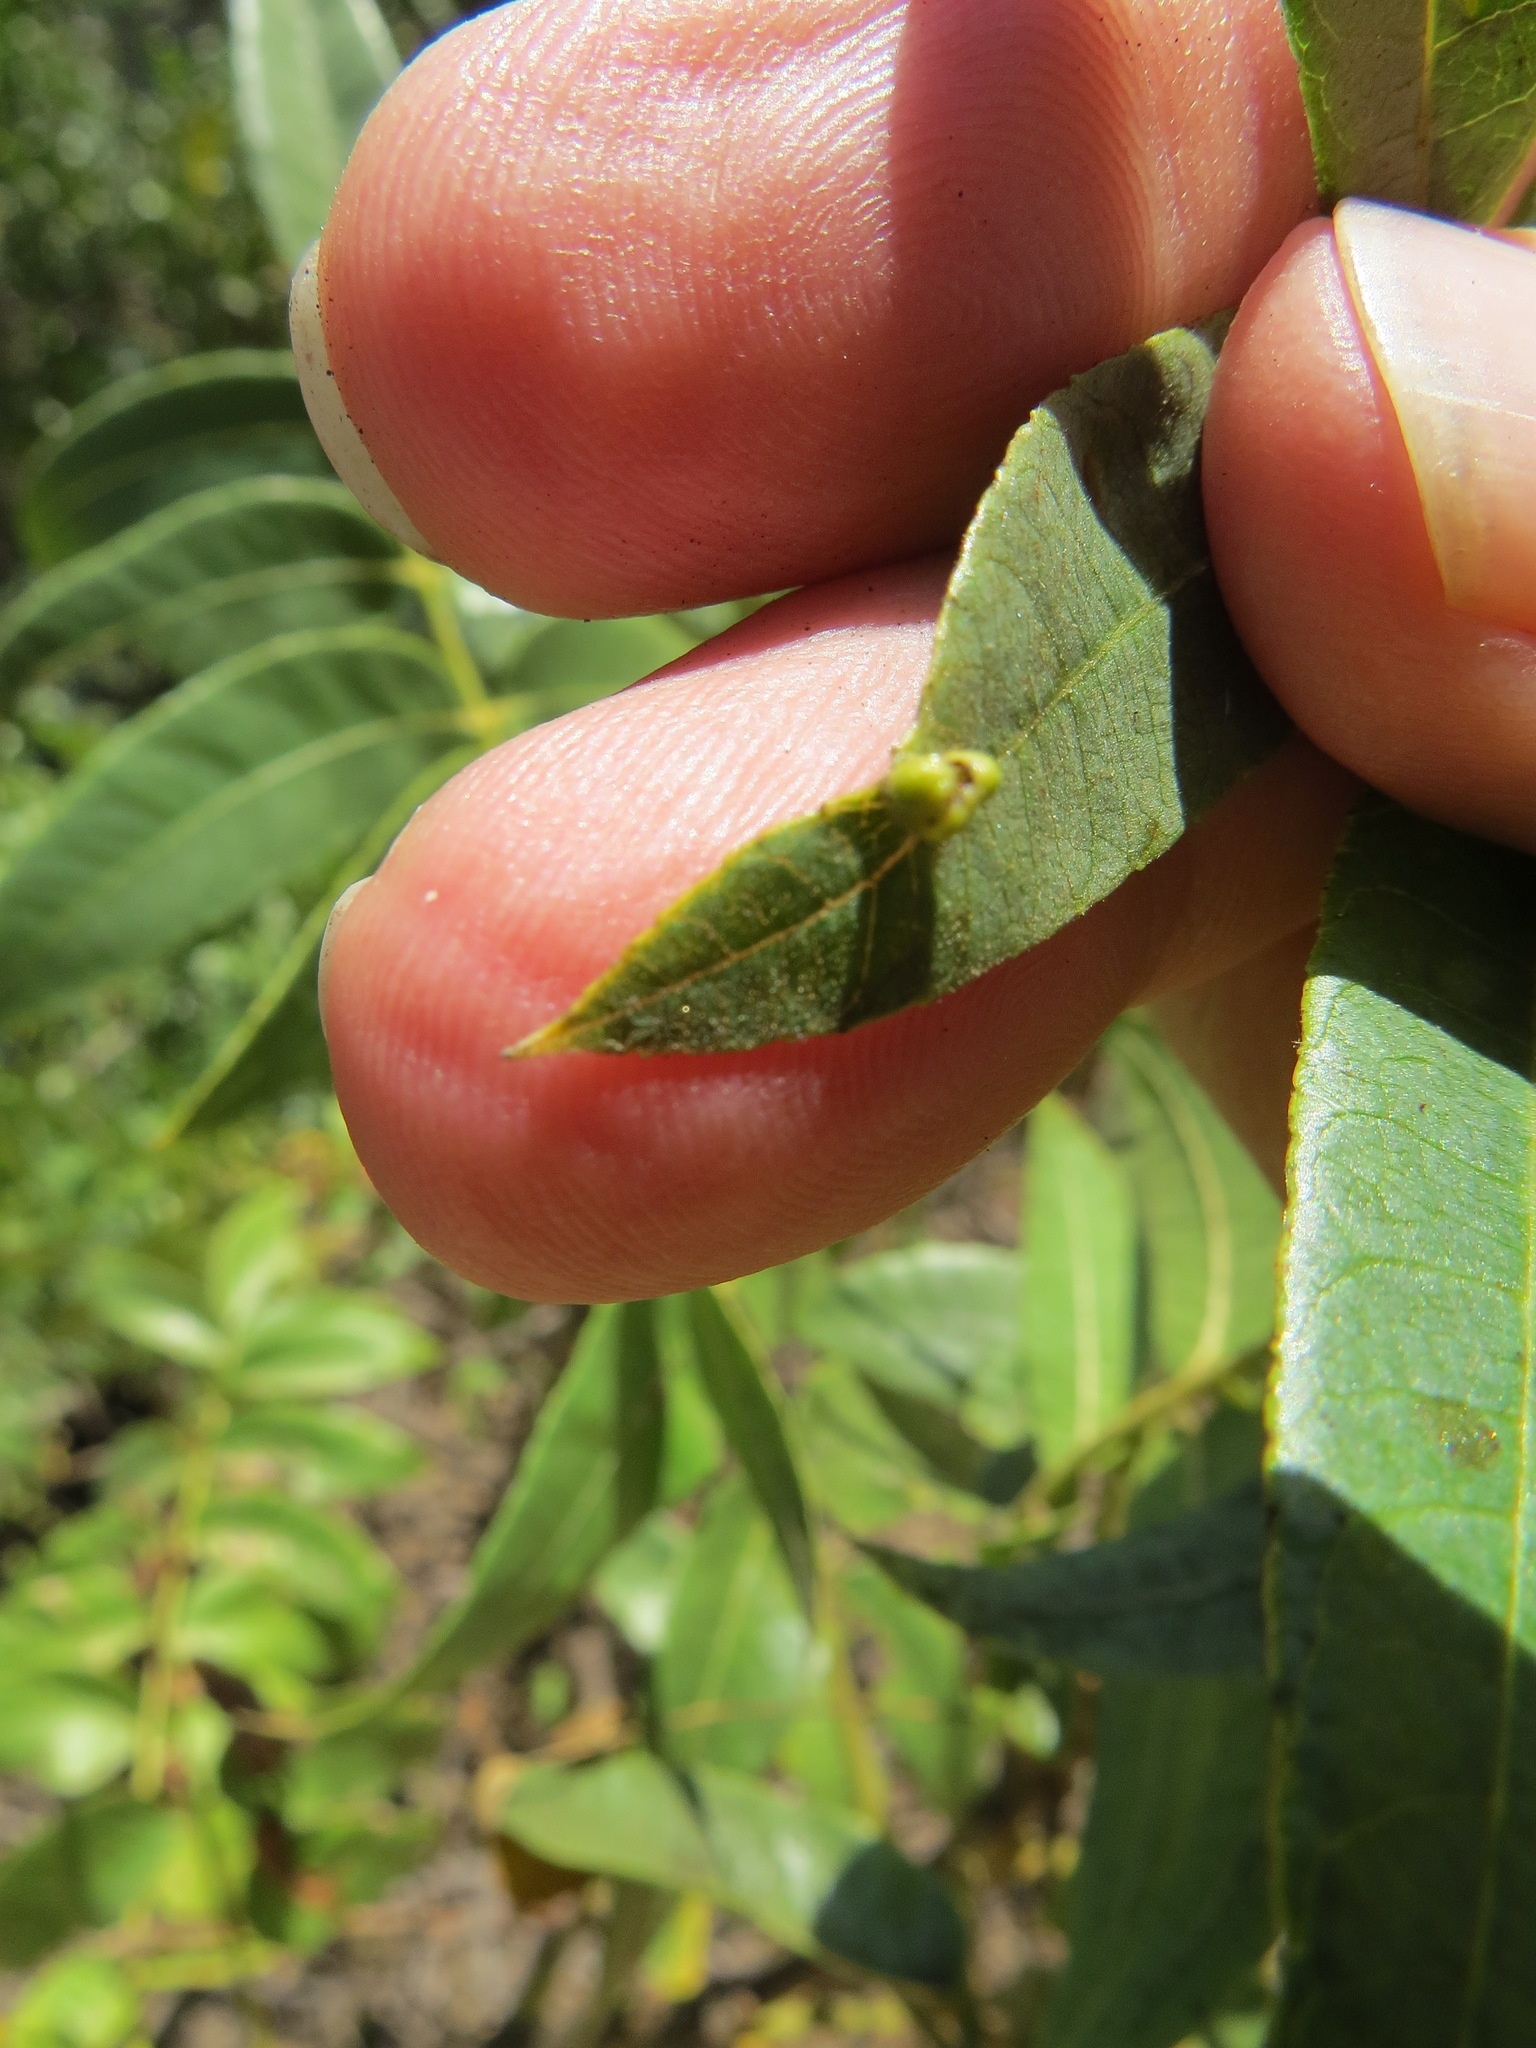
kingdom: Animalia
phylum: Arthropoda
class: Arachnida
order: Trombidiformes
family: Eriophyidae
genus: Aceria
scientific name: Aceria brachytarsus
